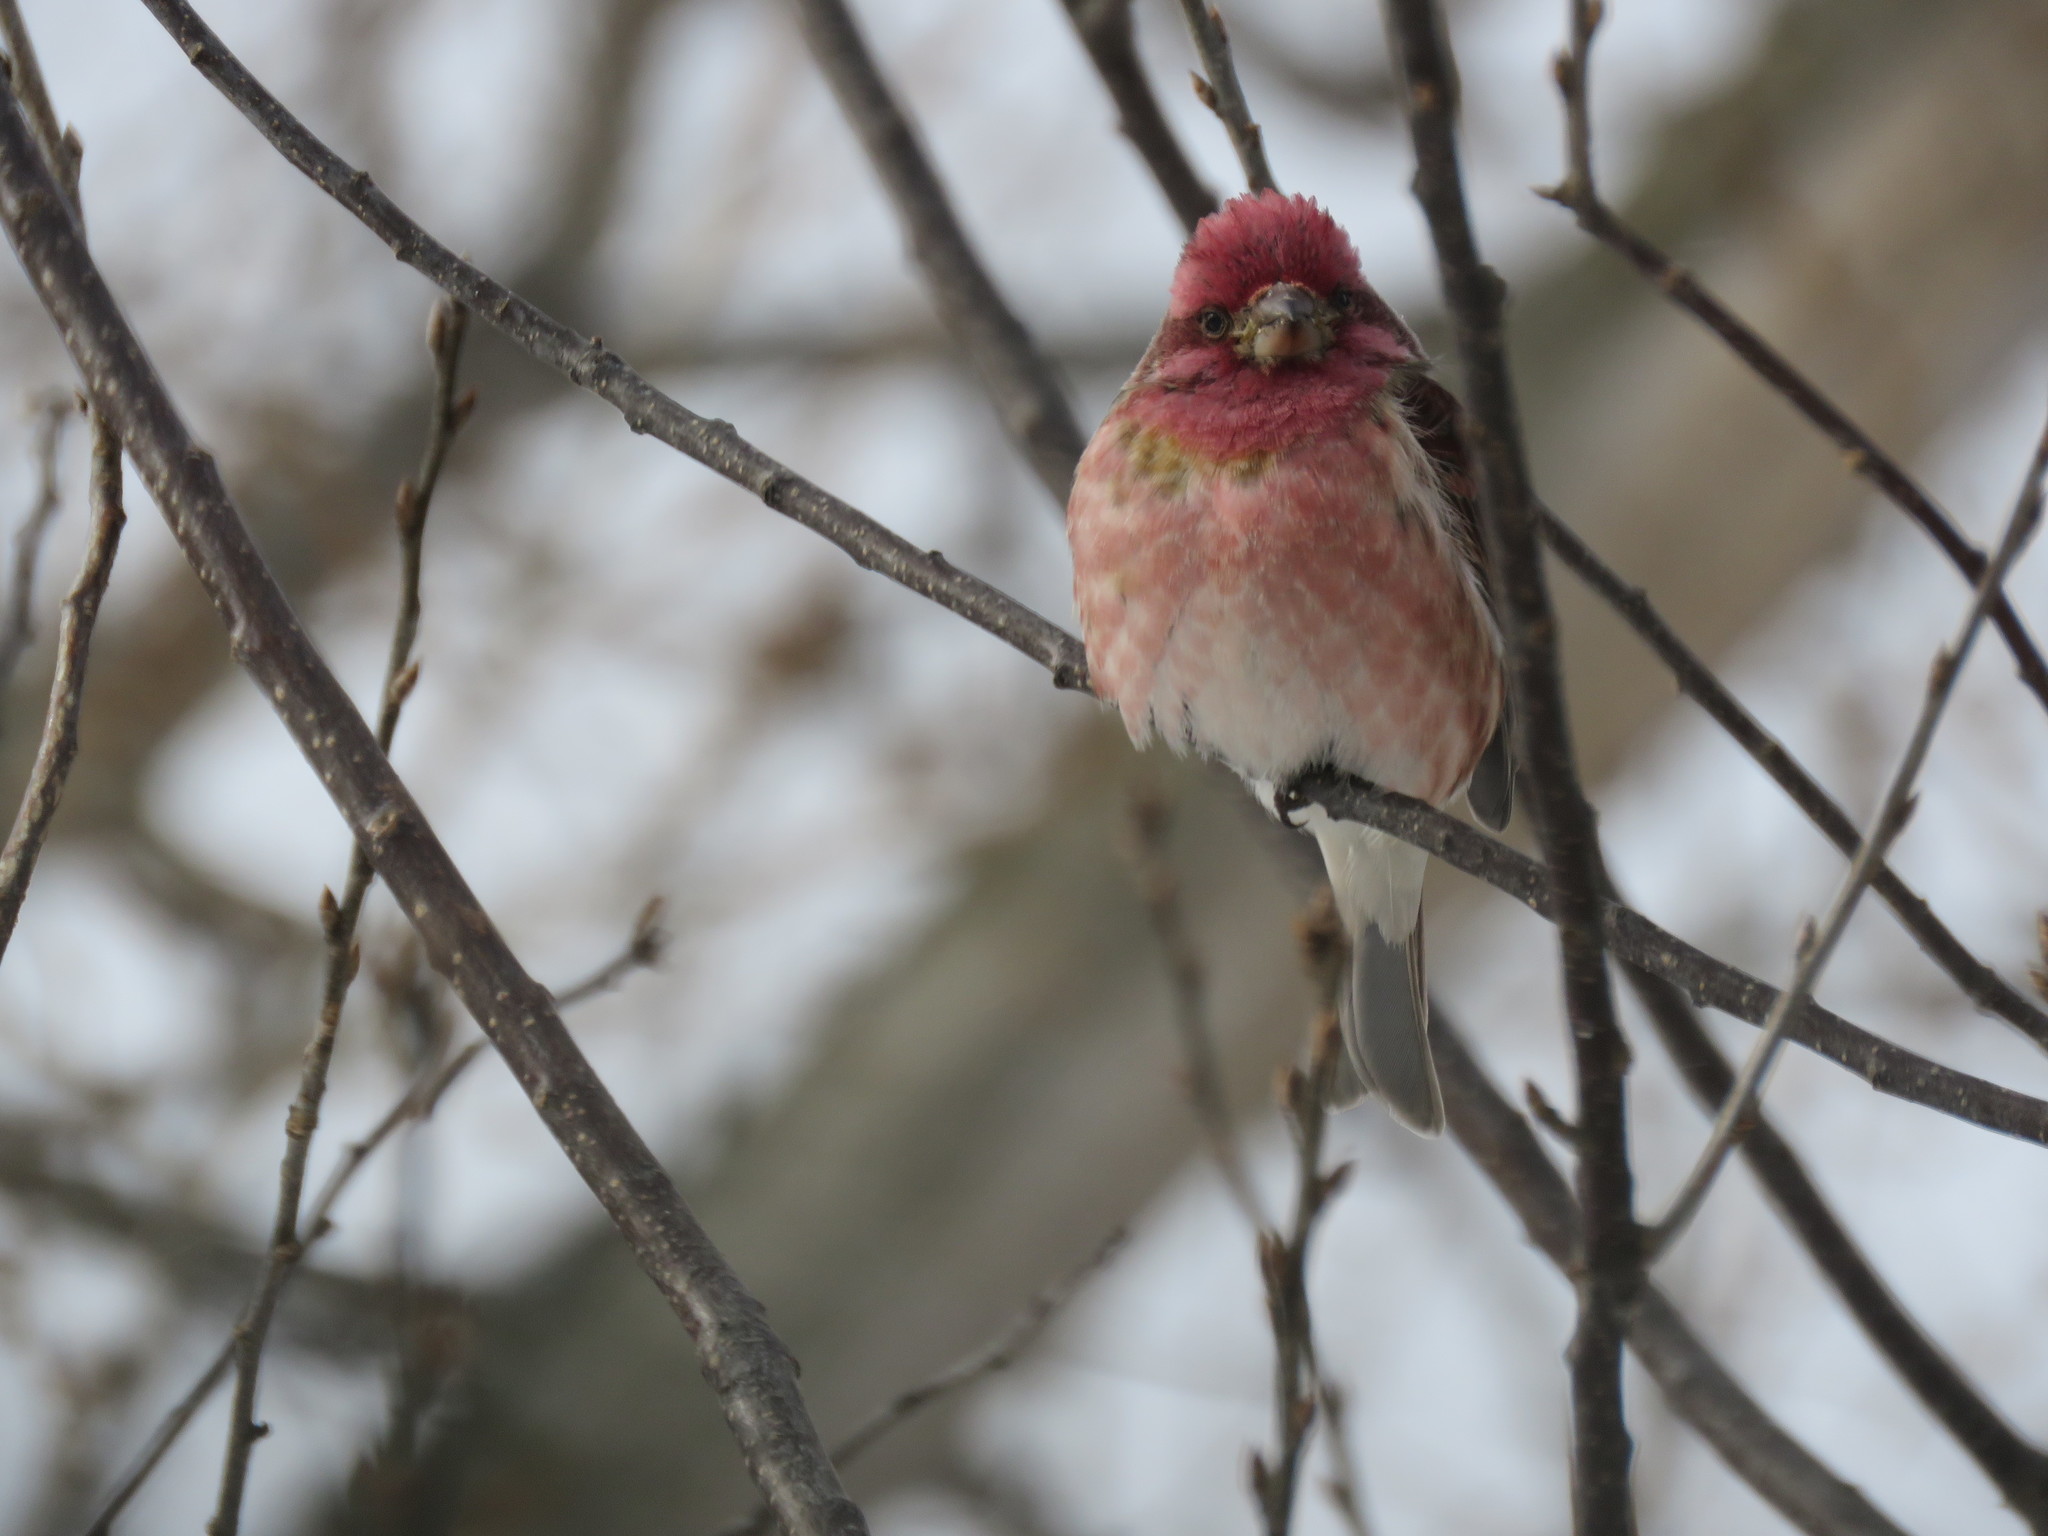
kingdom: Animalia
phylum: Chordata
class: Aves
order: Passeriformes
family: Fringillidae
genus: Haemorhous
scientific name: Haemorhous purpureus
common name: Purple finch
